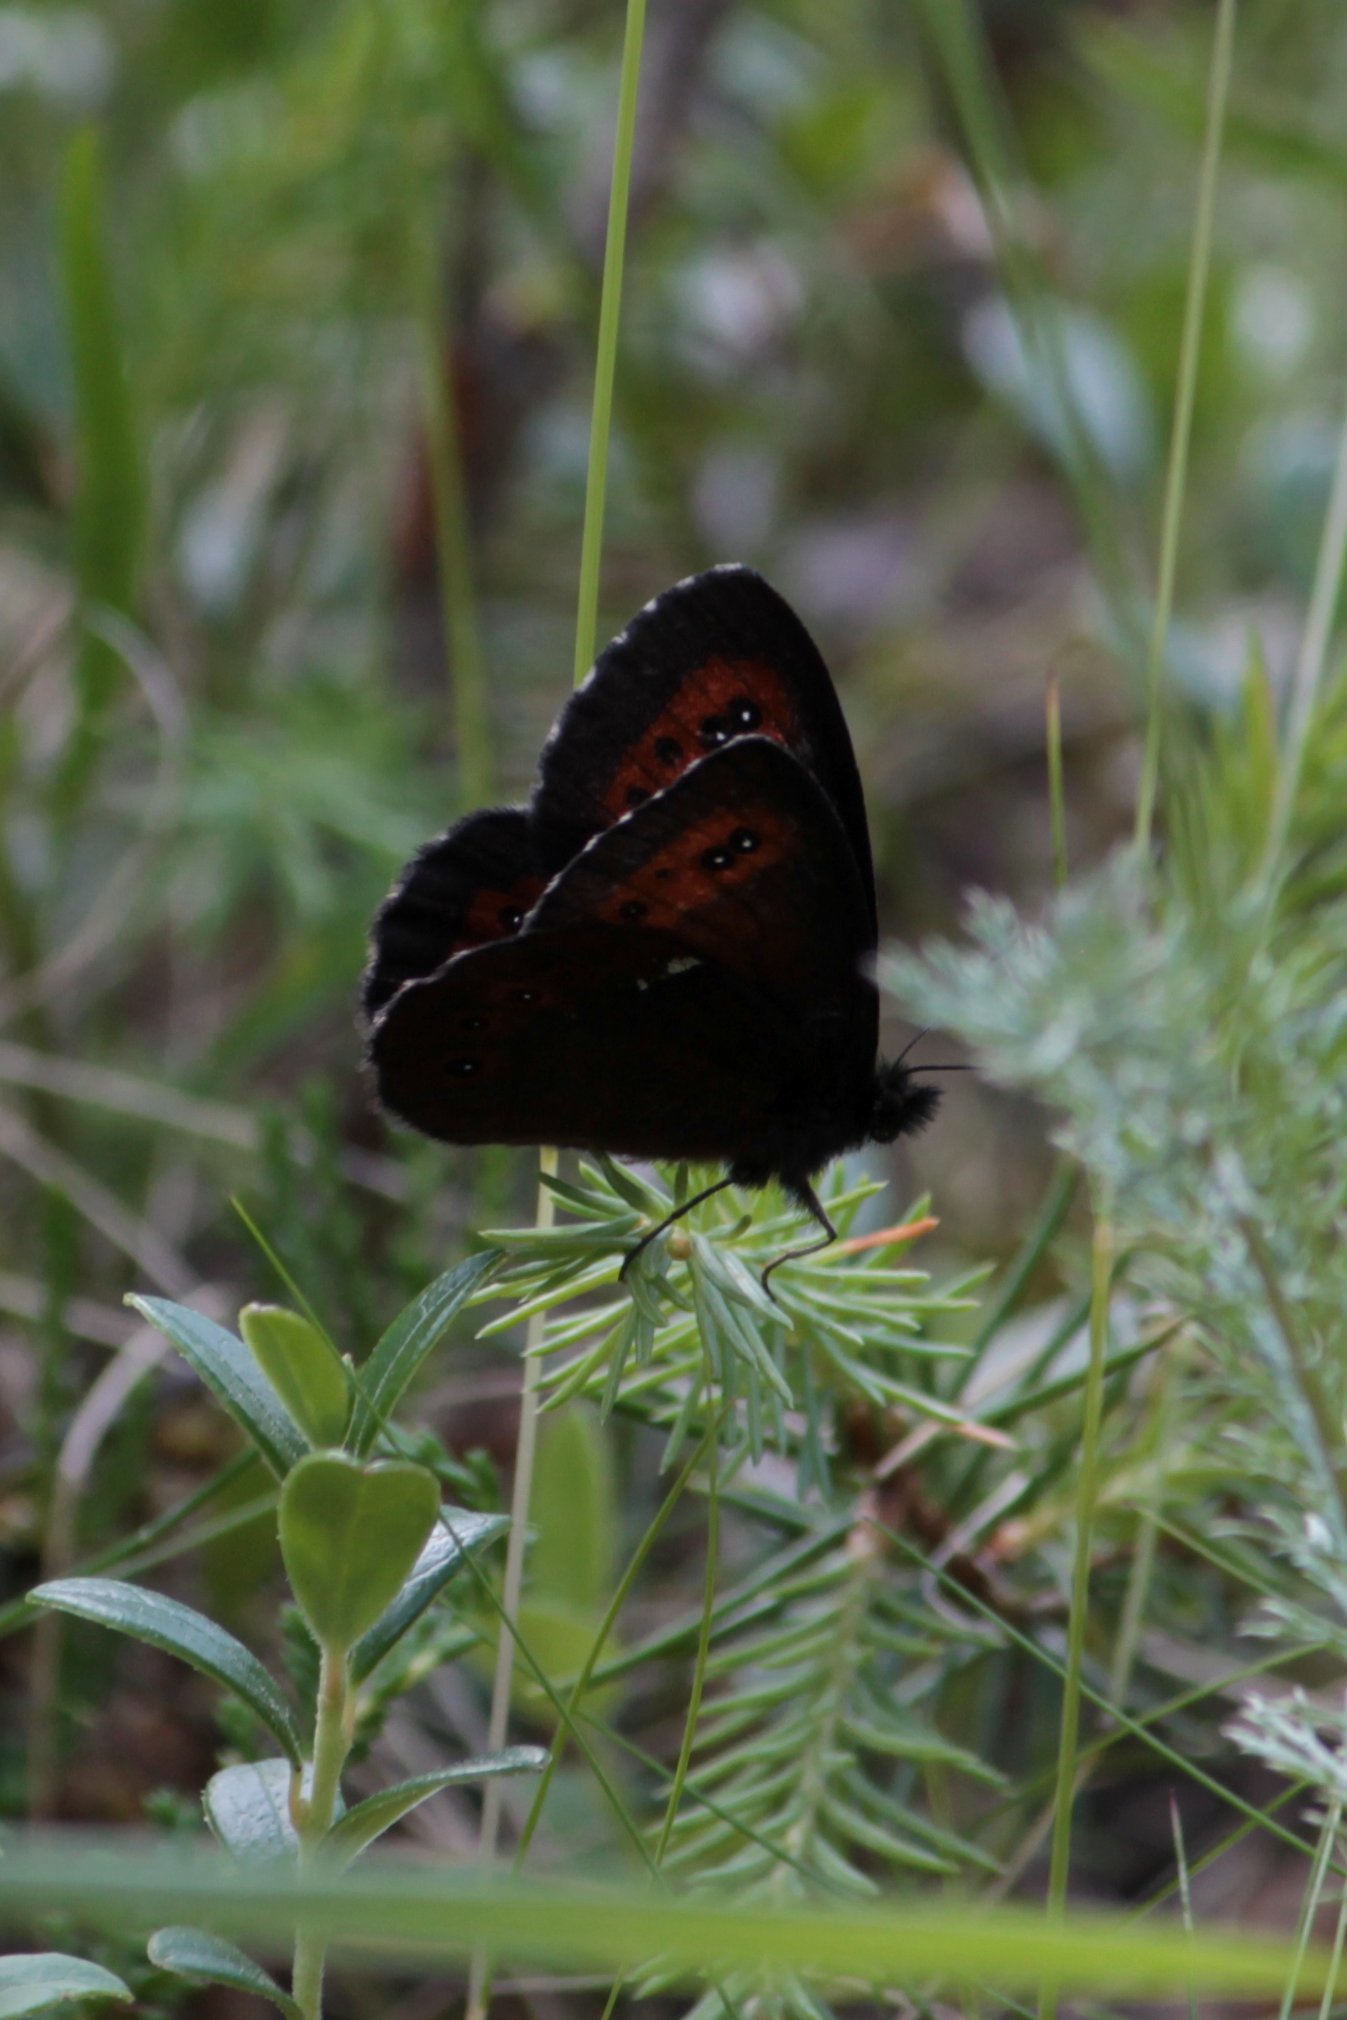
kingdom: Animalia
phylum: Arthropoda
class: Insecta
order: Lepidoptera
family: Nymphalidae
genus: Erebia
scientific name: Erebia ligea
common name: Arran brown
